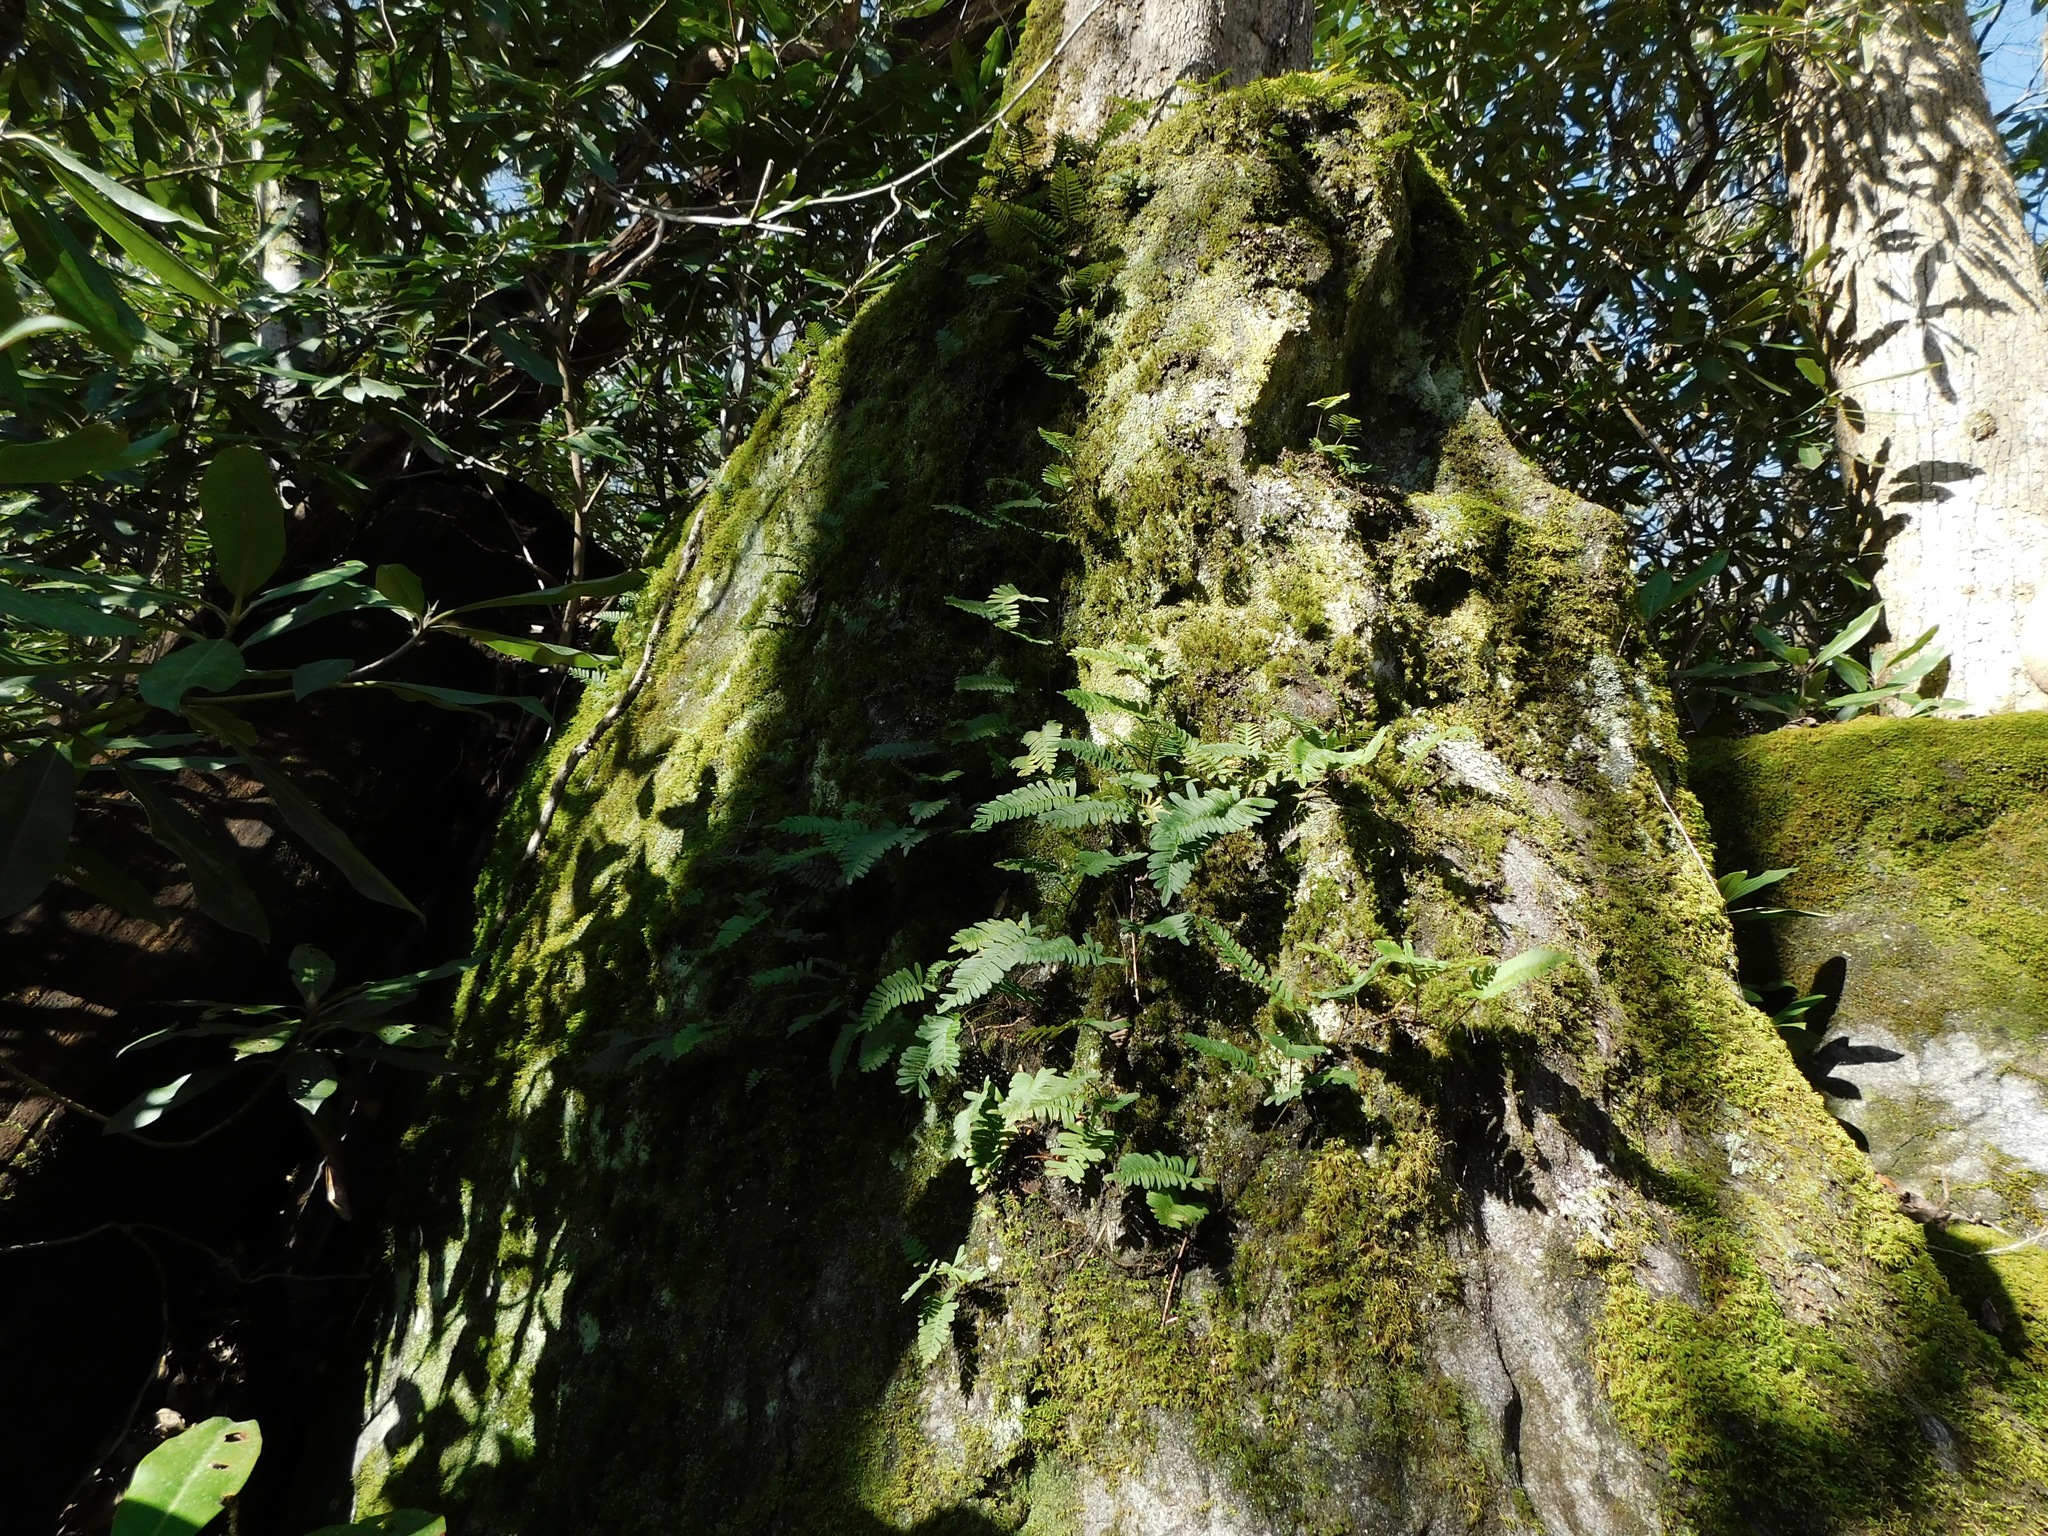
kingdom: Plantae
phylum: Tracheophyta
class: Polypodiopsida
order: Polypodiales
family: Polypodiaceae
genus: Pleopeltis
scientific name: Pleopeltis michauxiana
